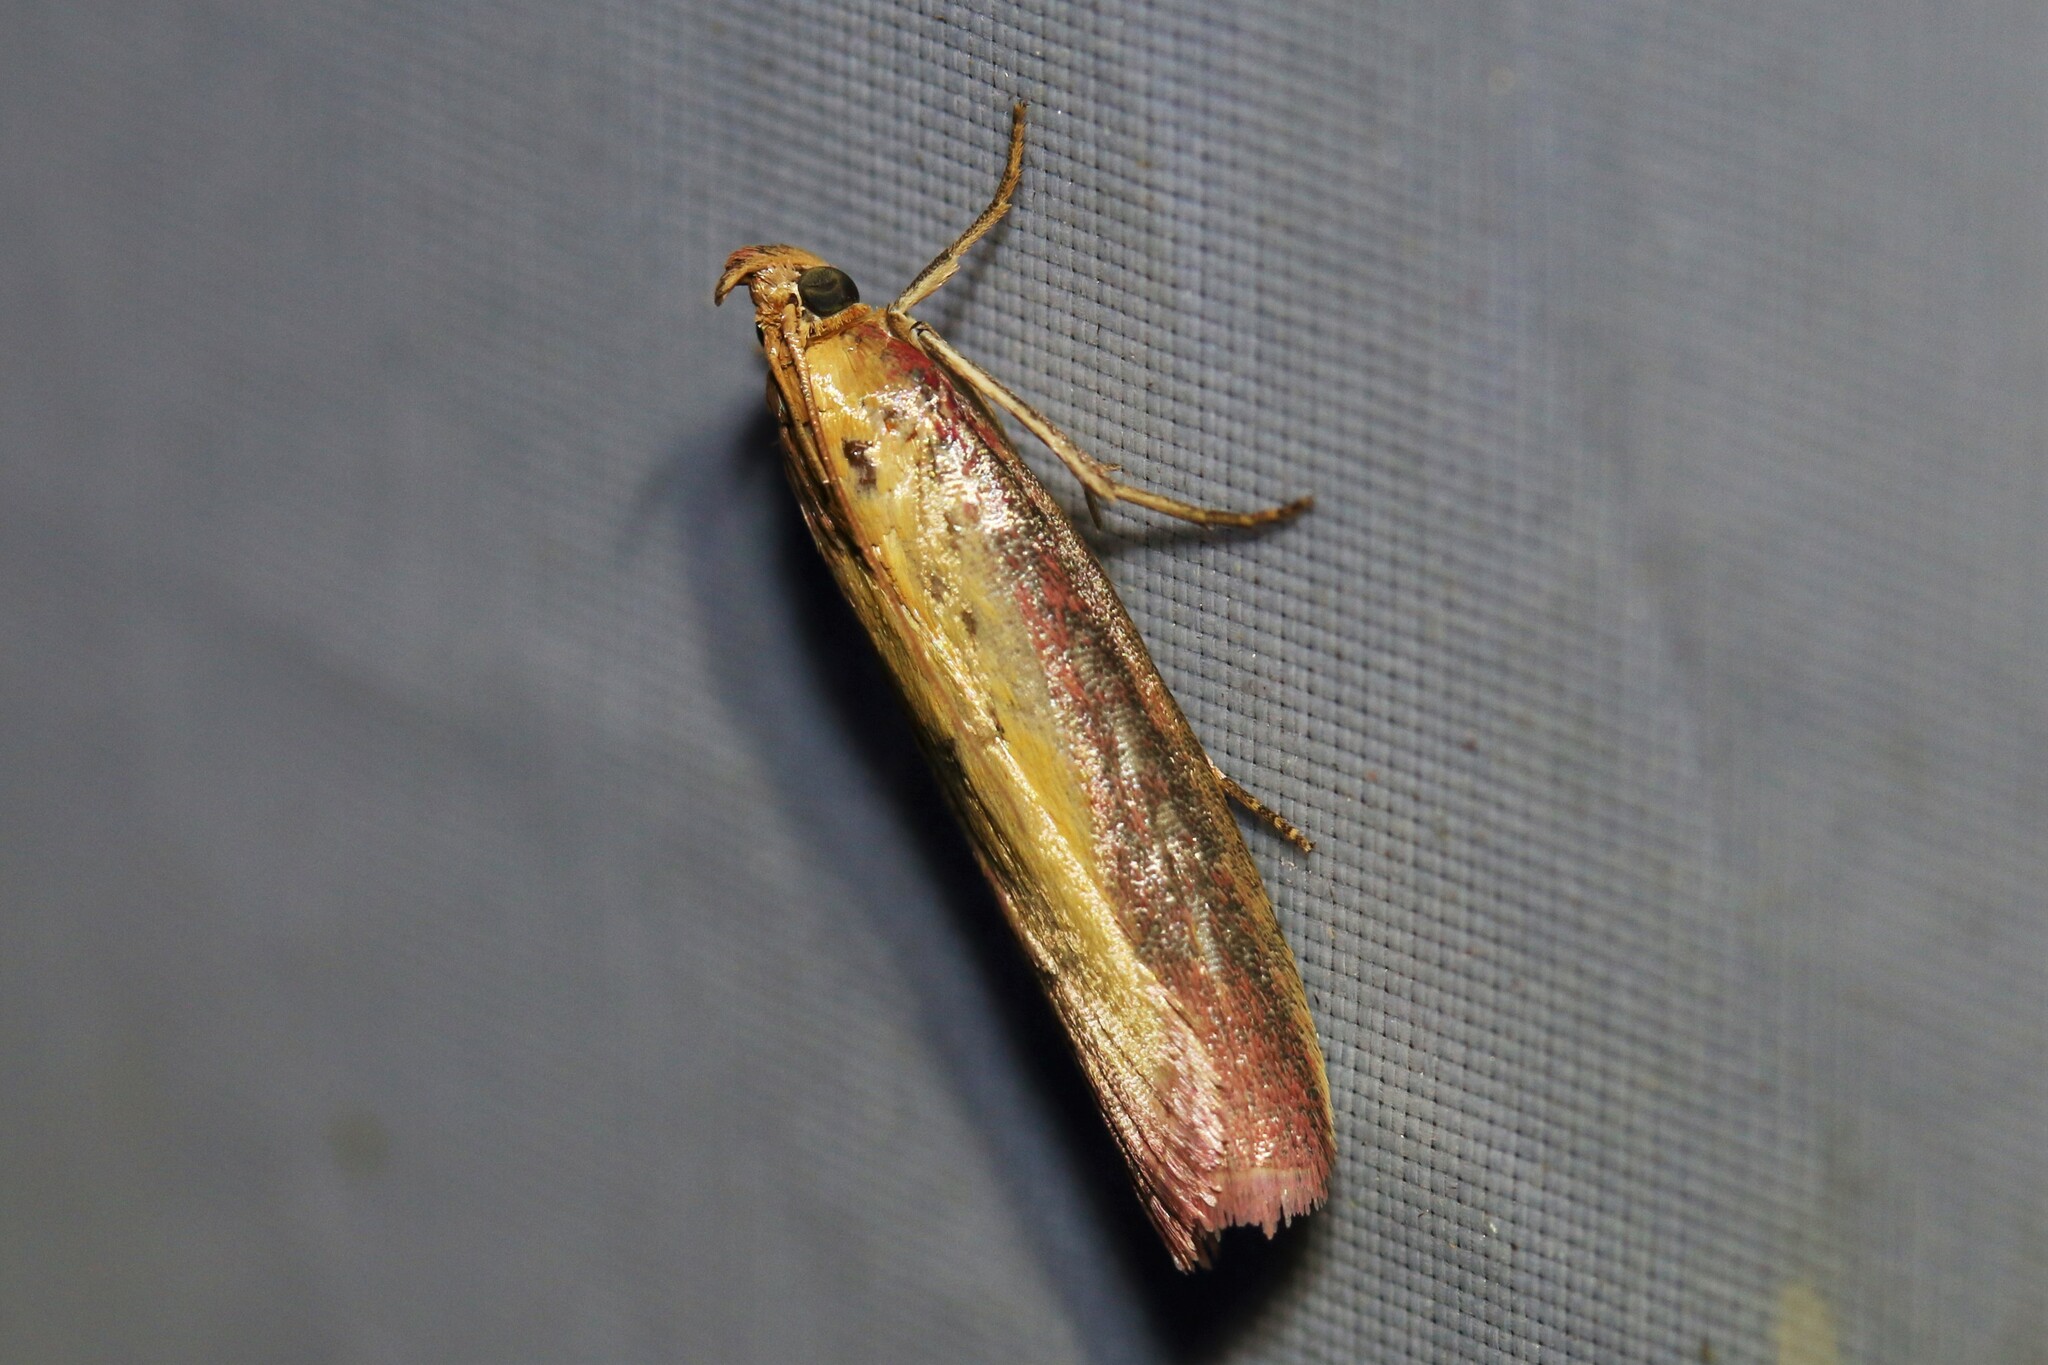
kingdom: Animalia
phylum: Arthropoda
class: Insecta
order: Lepidoptera
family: Pyralidae
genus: Oncocera
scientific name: Oncocera semirubella
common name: Rosy-striped knot-horn
